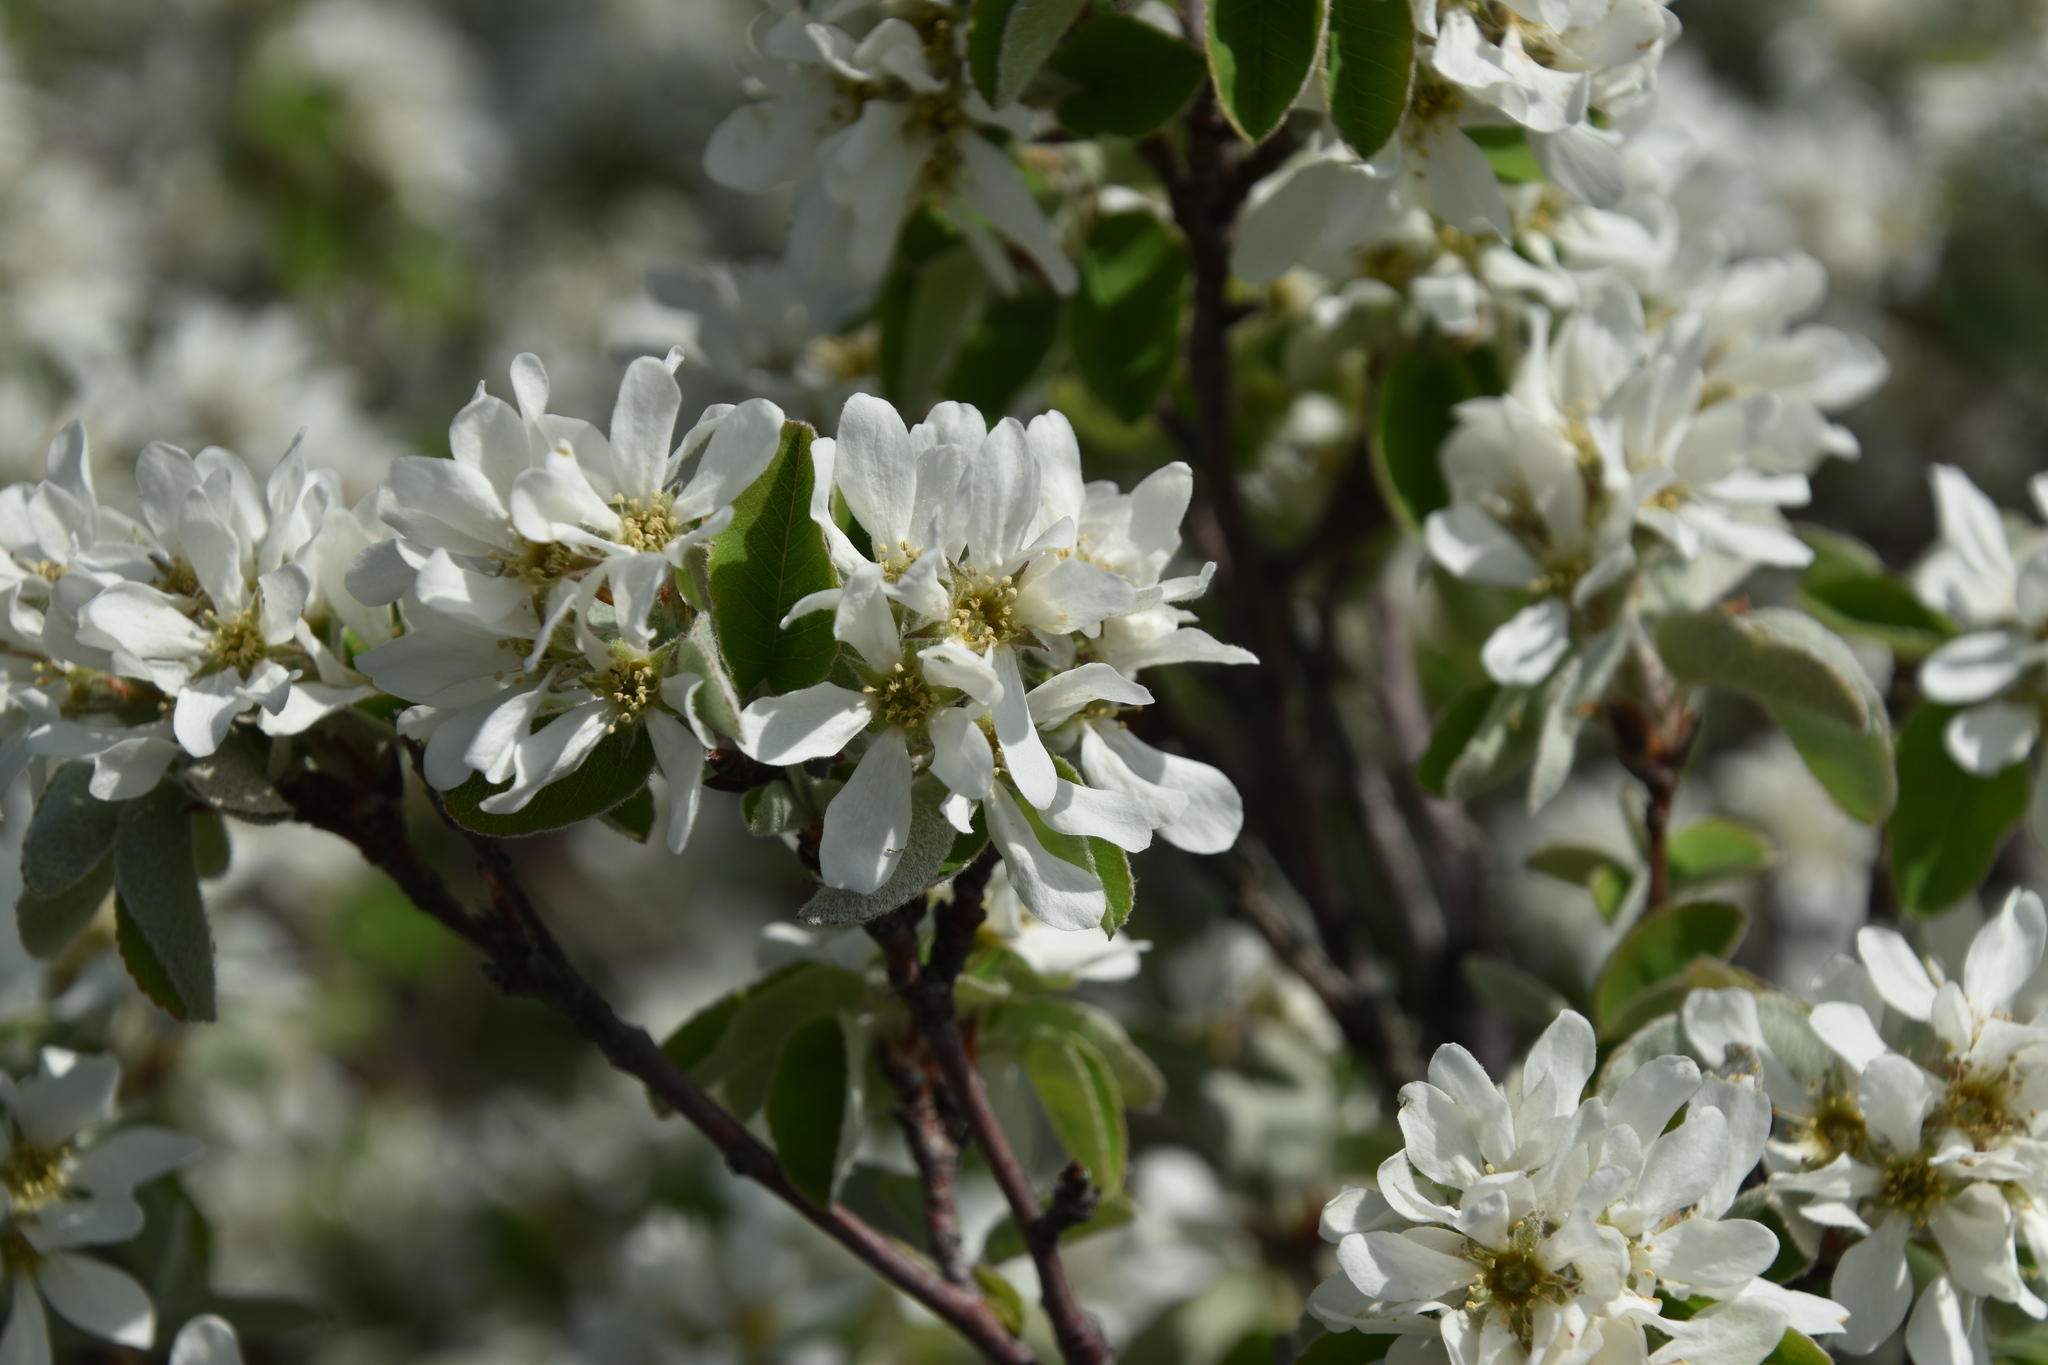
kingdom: Plantae
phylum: Tracheophyta
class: Magnoliopsida
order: Rosales
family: Rosaceae
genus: Amelanchier
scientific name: Amelanchier ovalis
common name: Serviceberry
